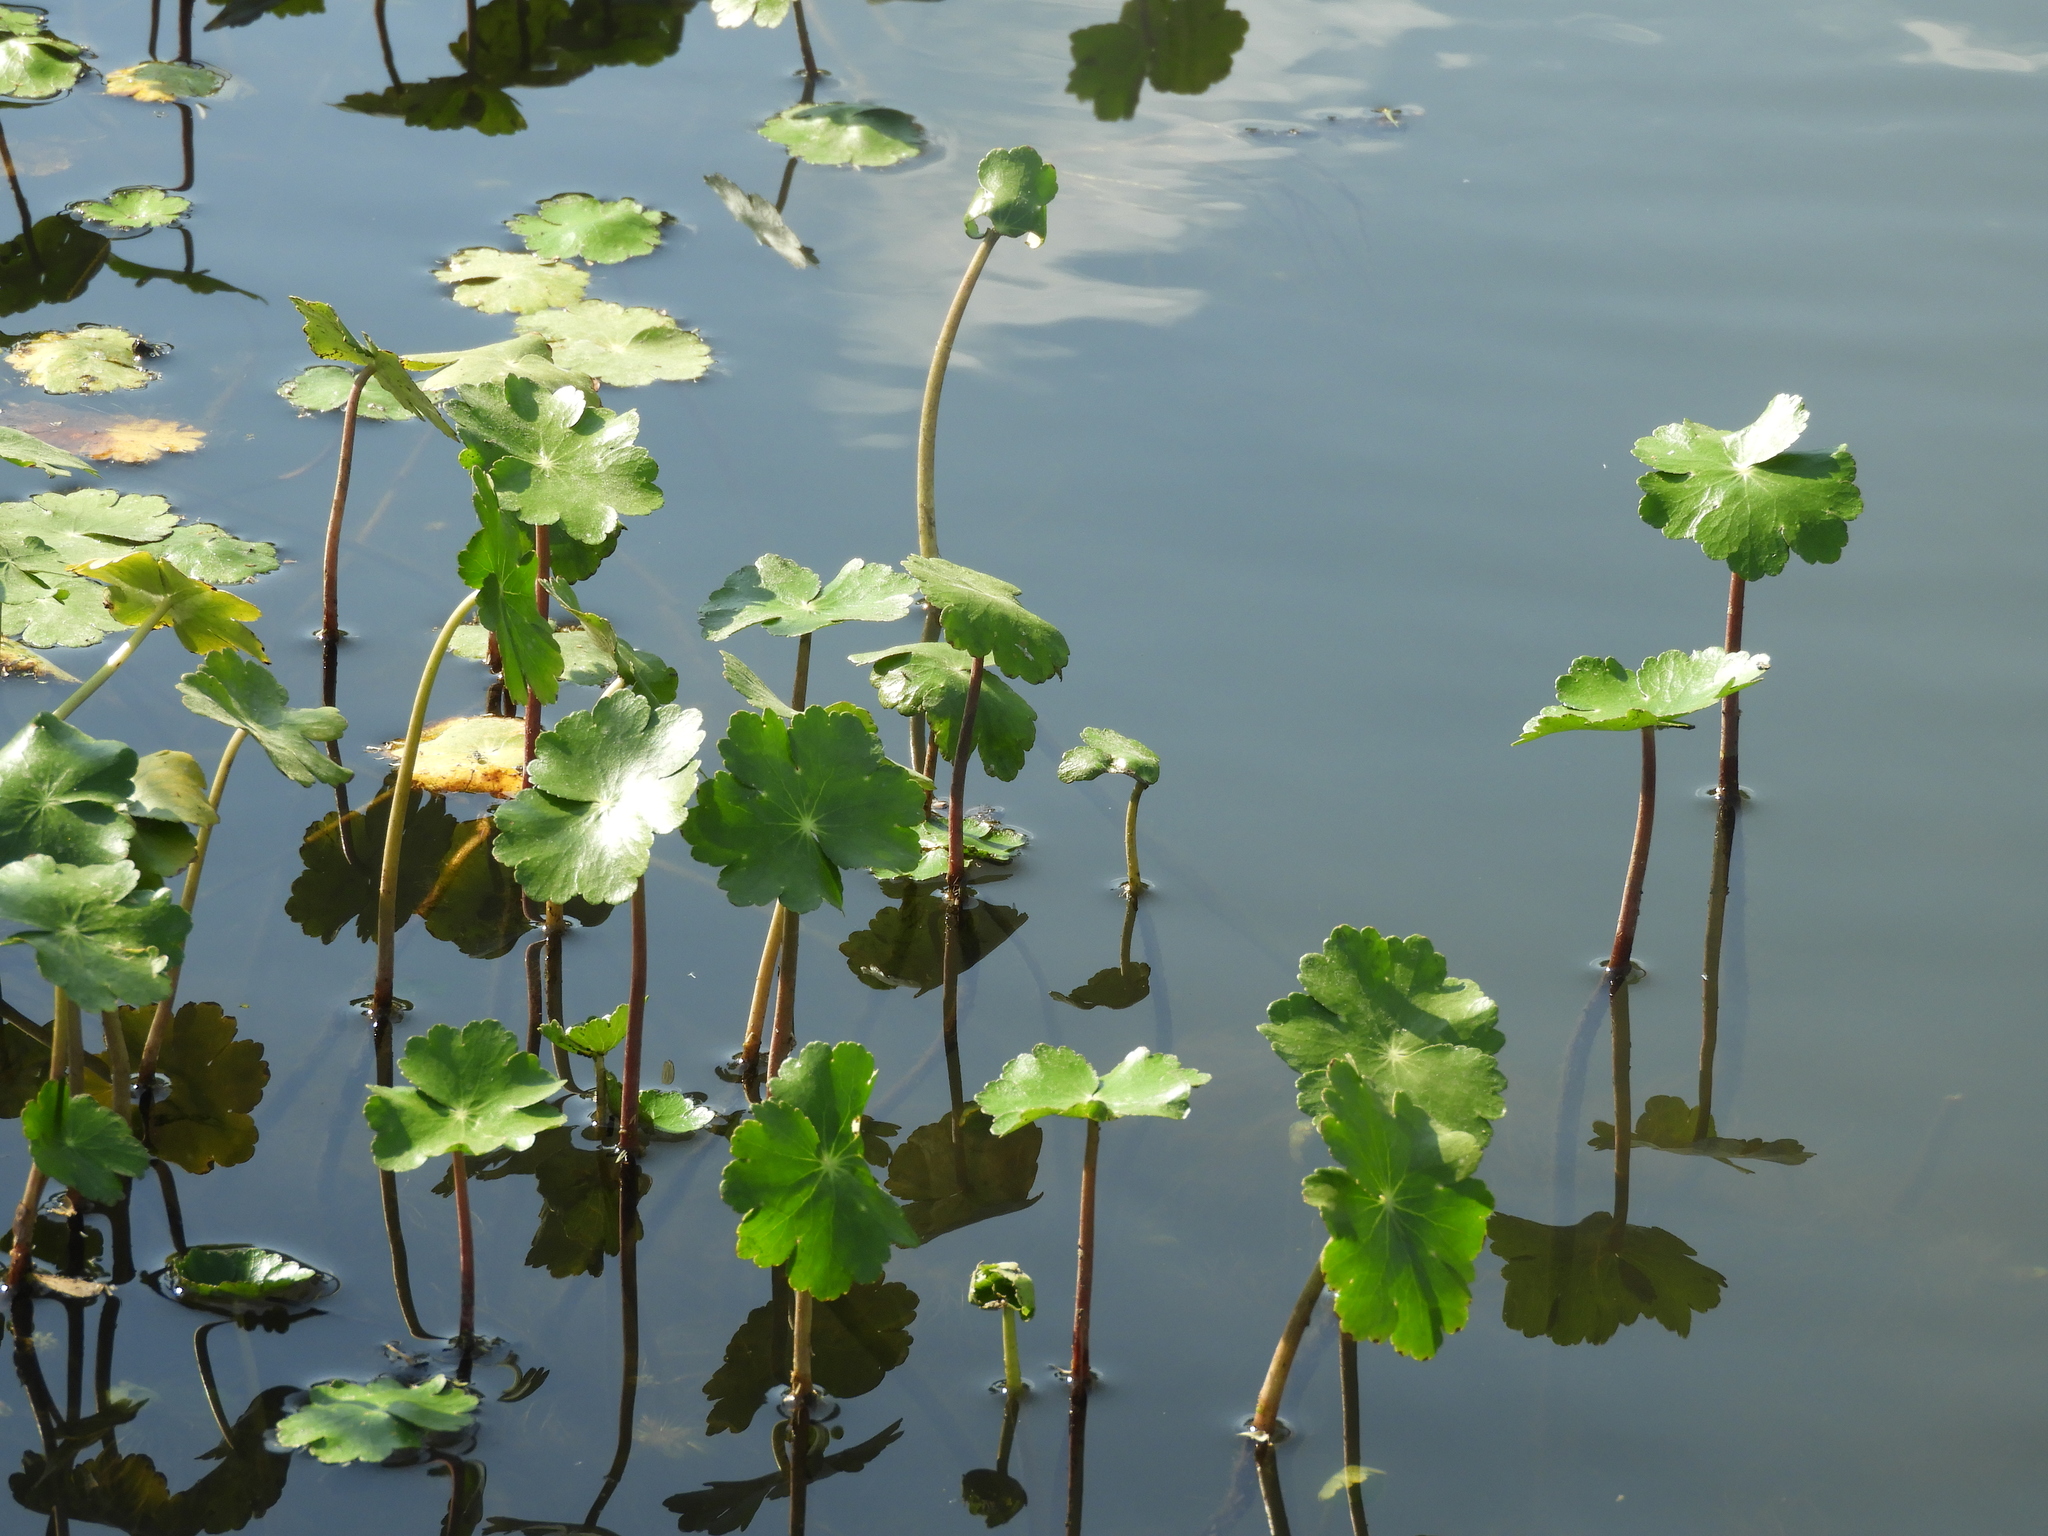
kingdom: Plantae
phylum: Tracheophyta
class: Magnoliopsida
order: Apiales
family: Araliaceae
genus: Hydrocotyle
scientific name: Hydrocotyle ranunculoides
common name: Floating pennywort
